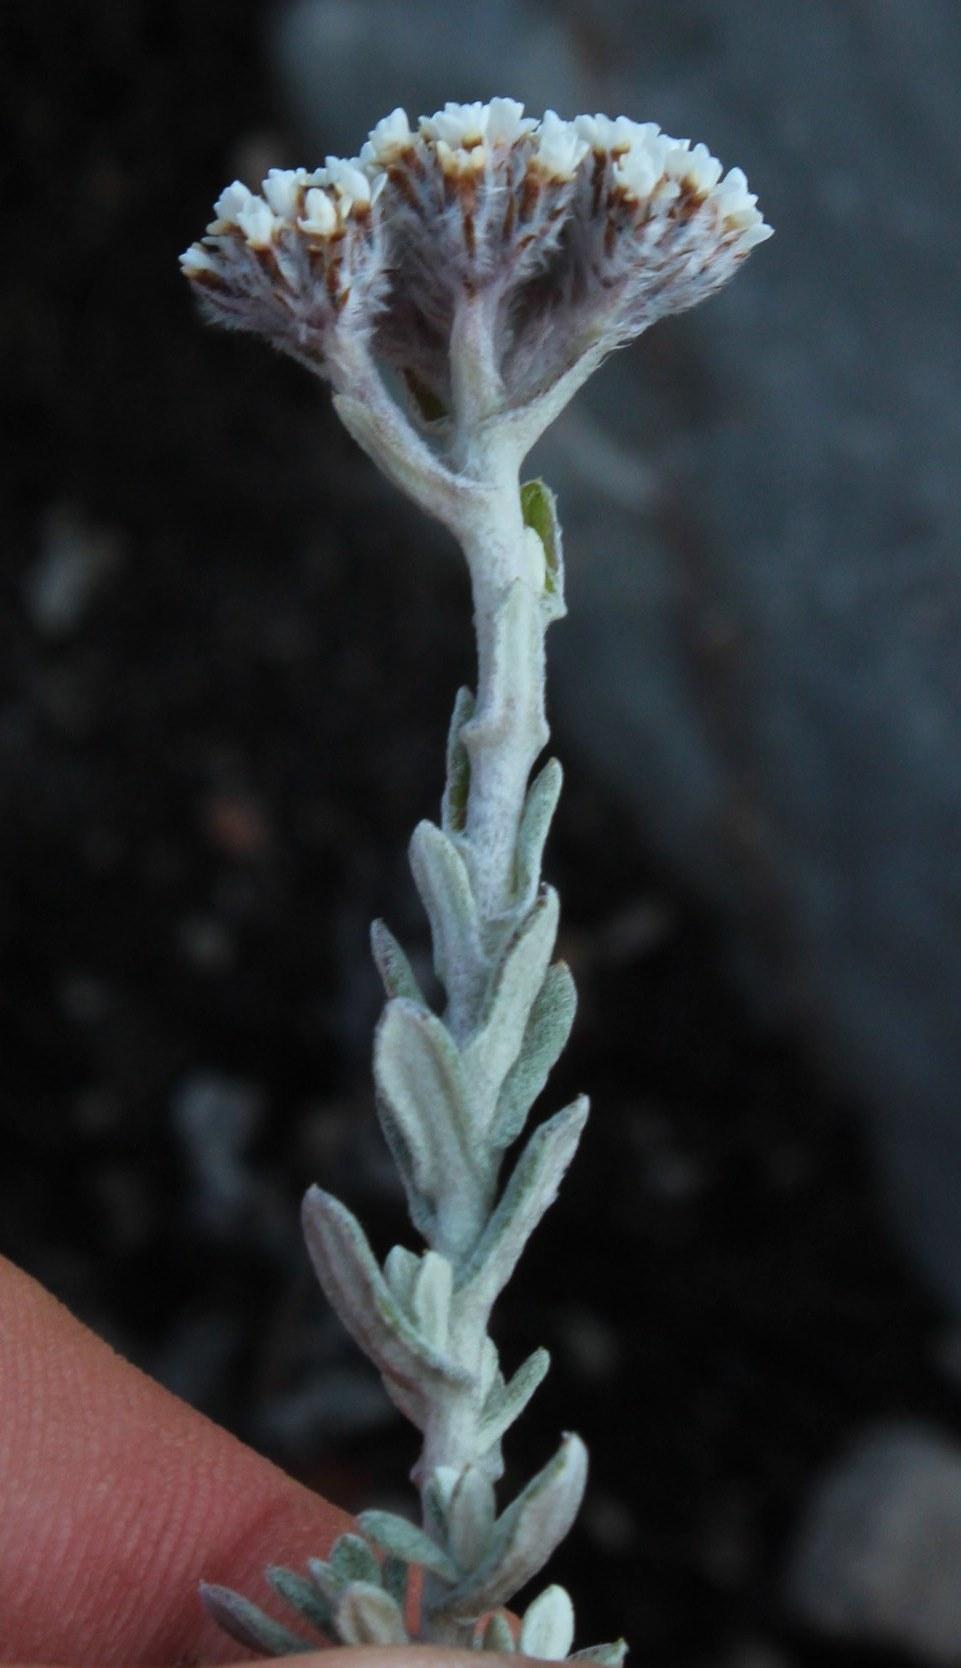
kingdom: Plantae
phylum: Tracheophyta
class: Magnoliopsida
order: Asterales
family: Asteraceae
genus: Anderbergia
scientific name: Anderbergia rooibergensis
